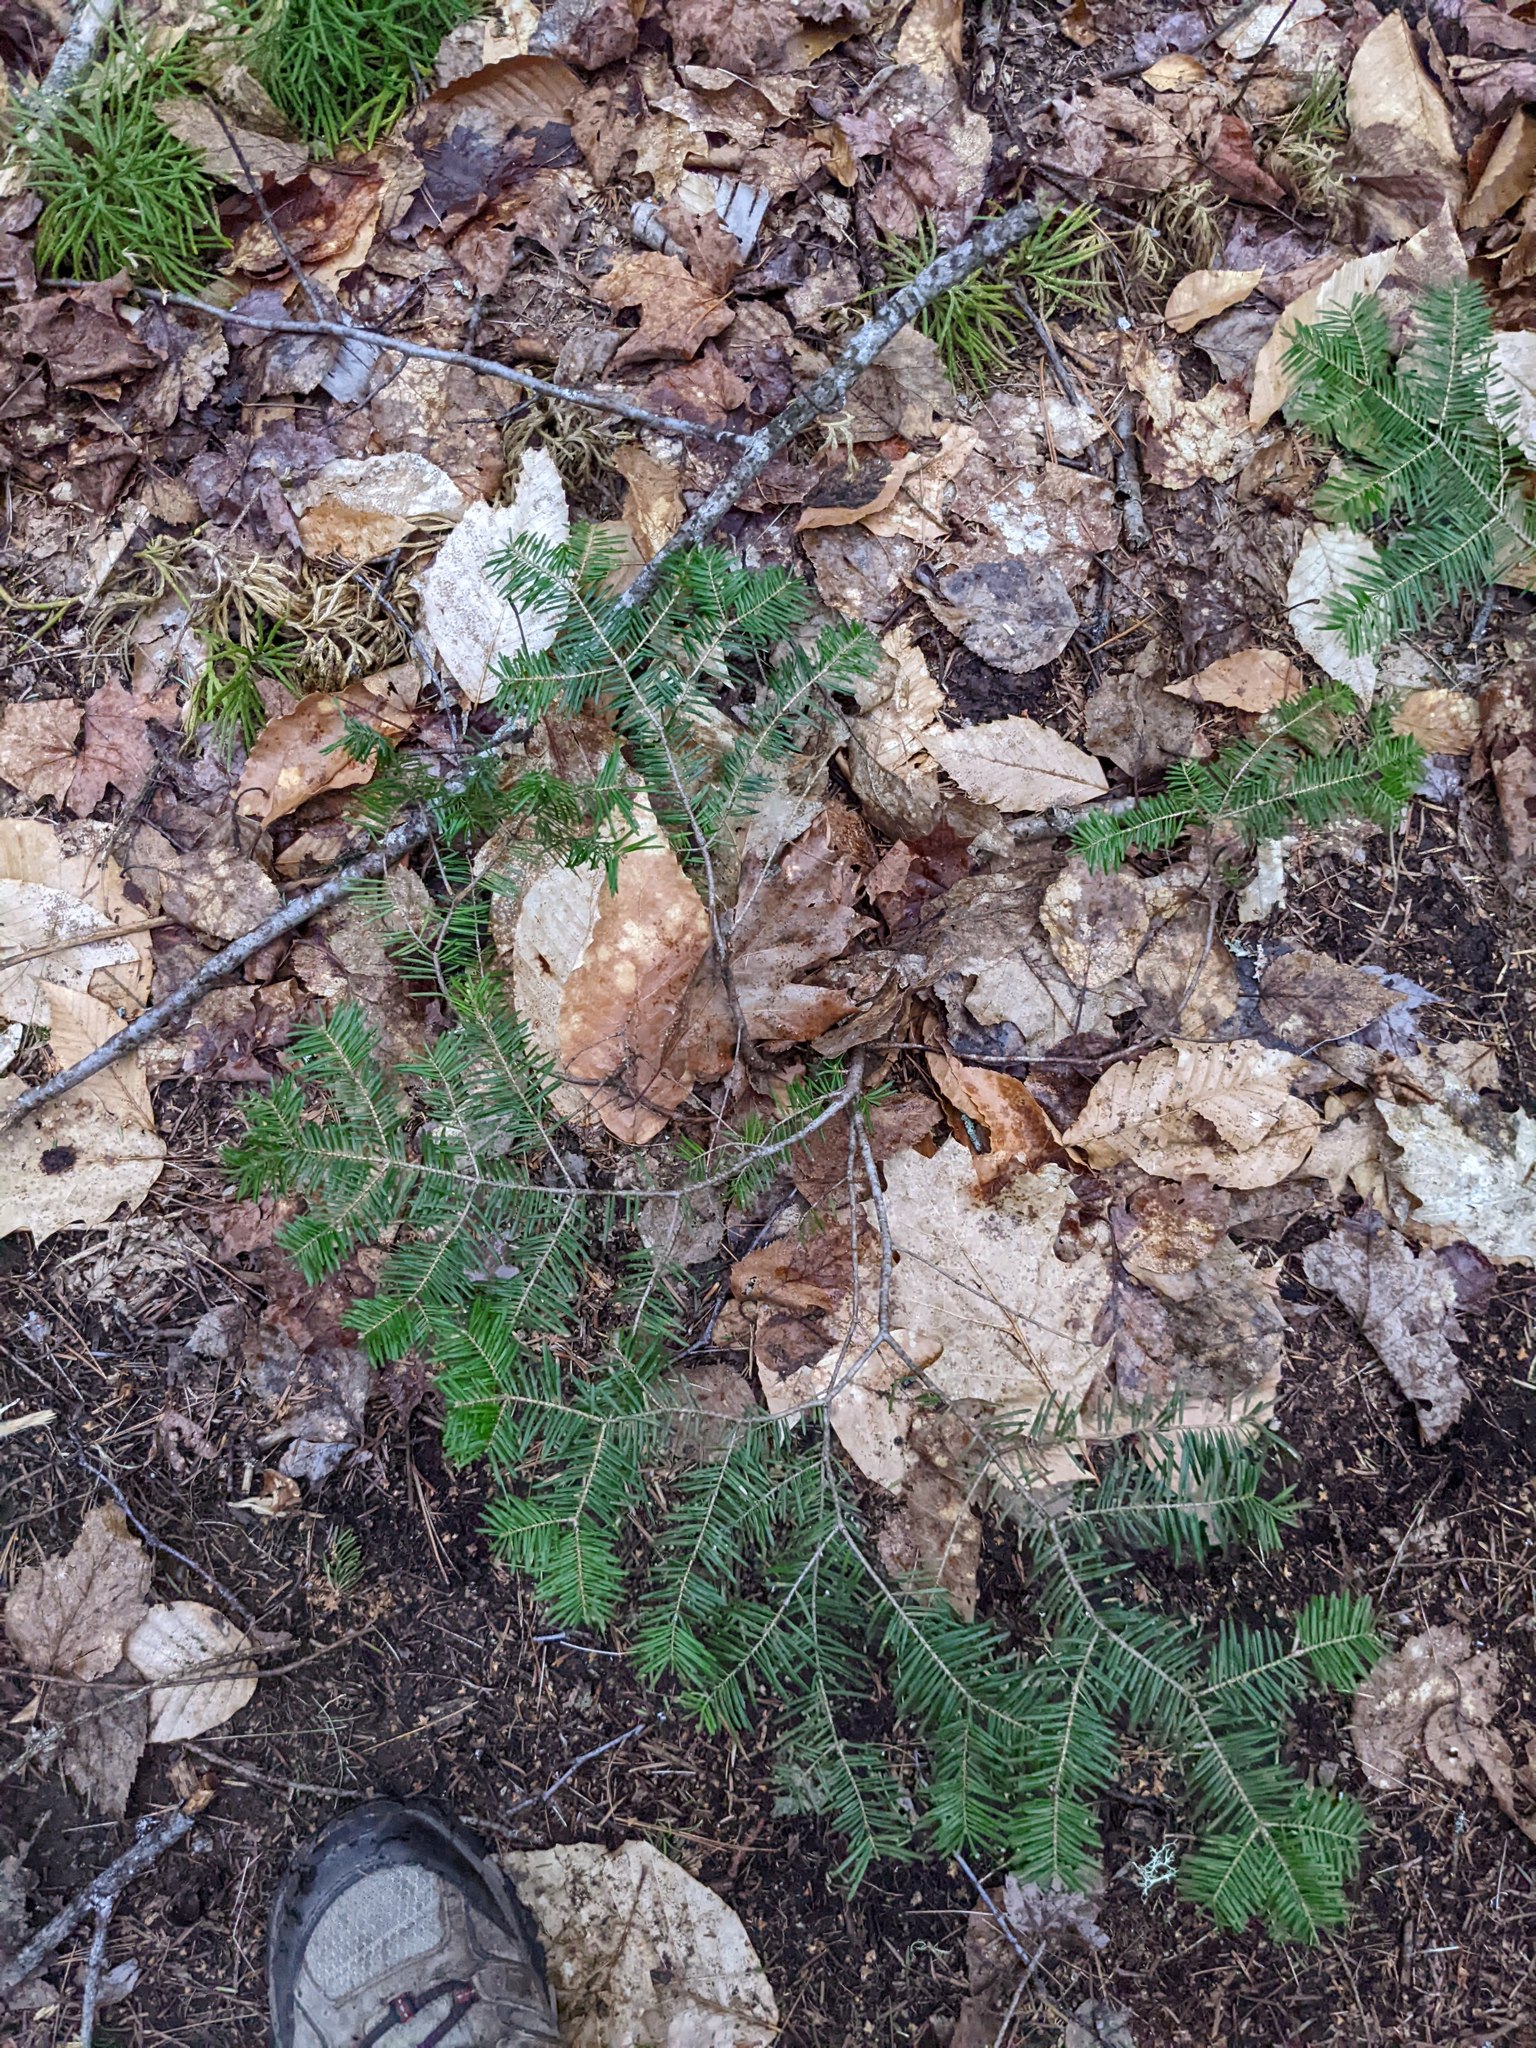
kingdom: Plantae
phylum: Tracheophyta
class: Pinopsida
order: Pinales
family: Pinaceae
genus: Abies
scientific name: Abies balsamea
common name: Balsam fir
